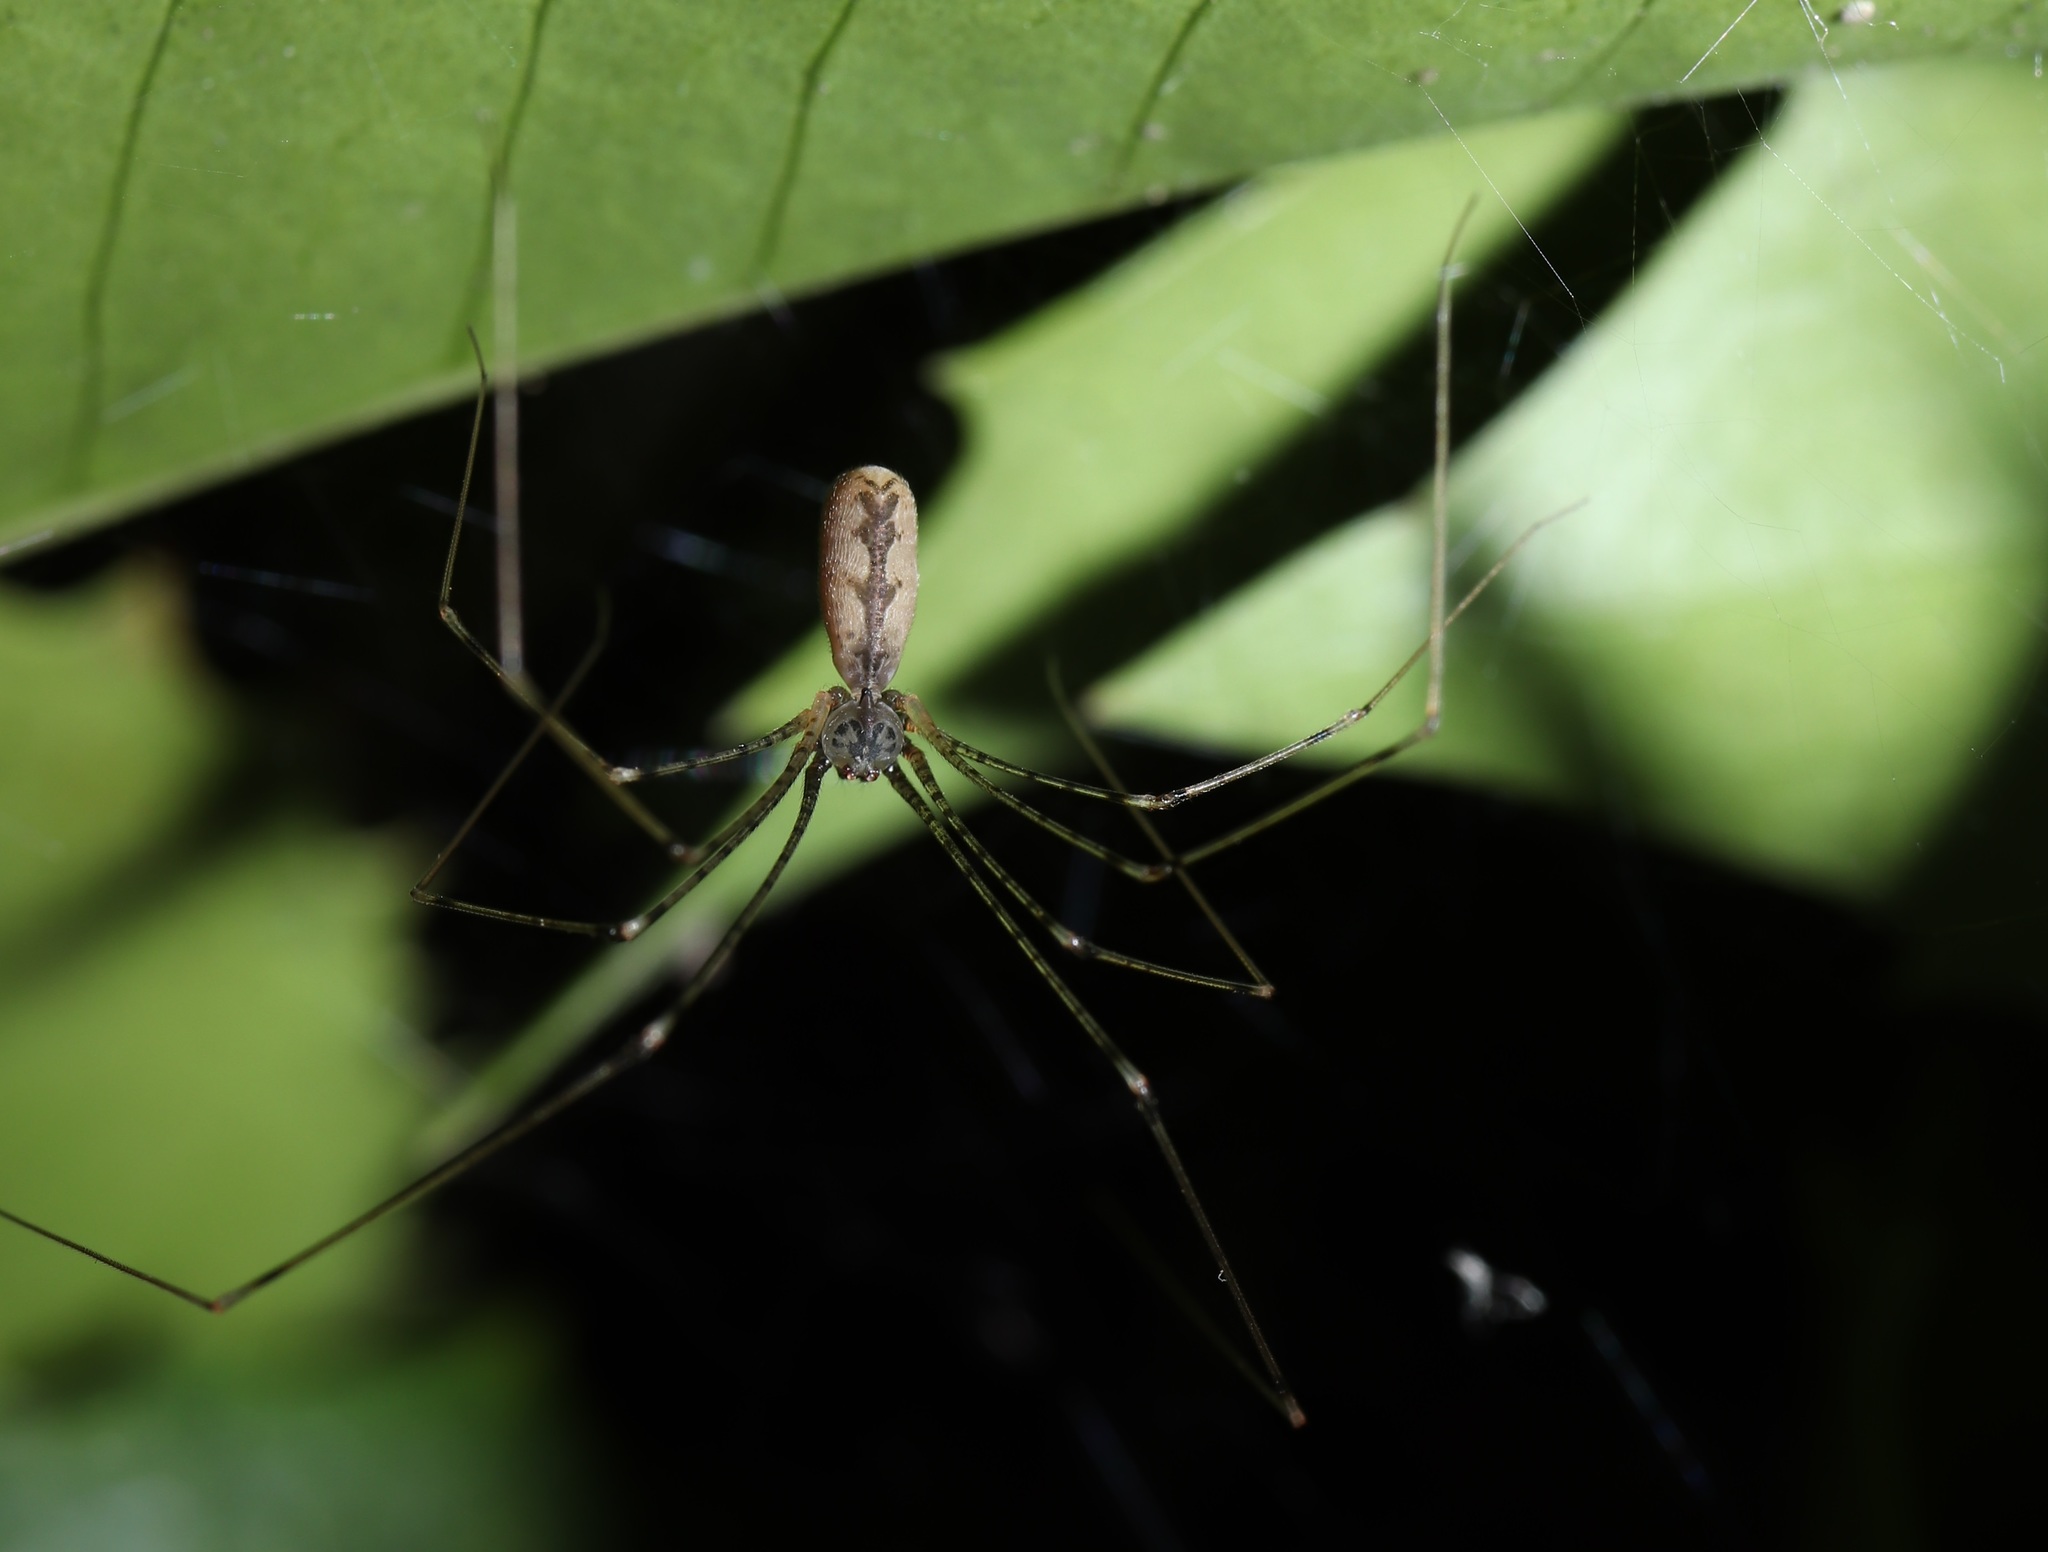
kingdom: Animalia
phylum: Arthropoda
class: Arachnida
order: Araneae
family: Pholcidae
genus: Pholcus
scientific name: Pholcus crypticolens
